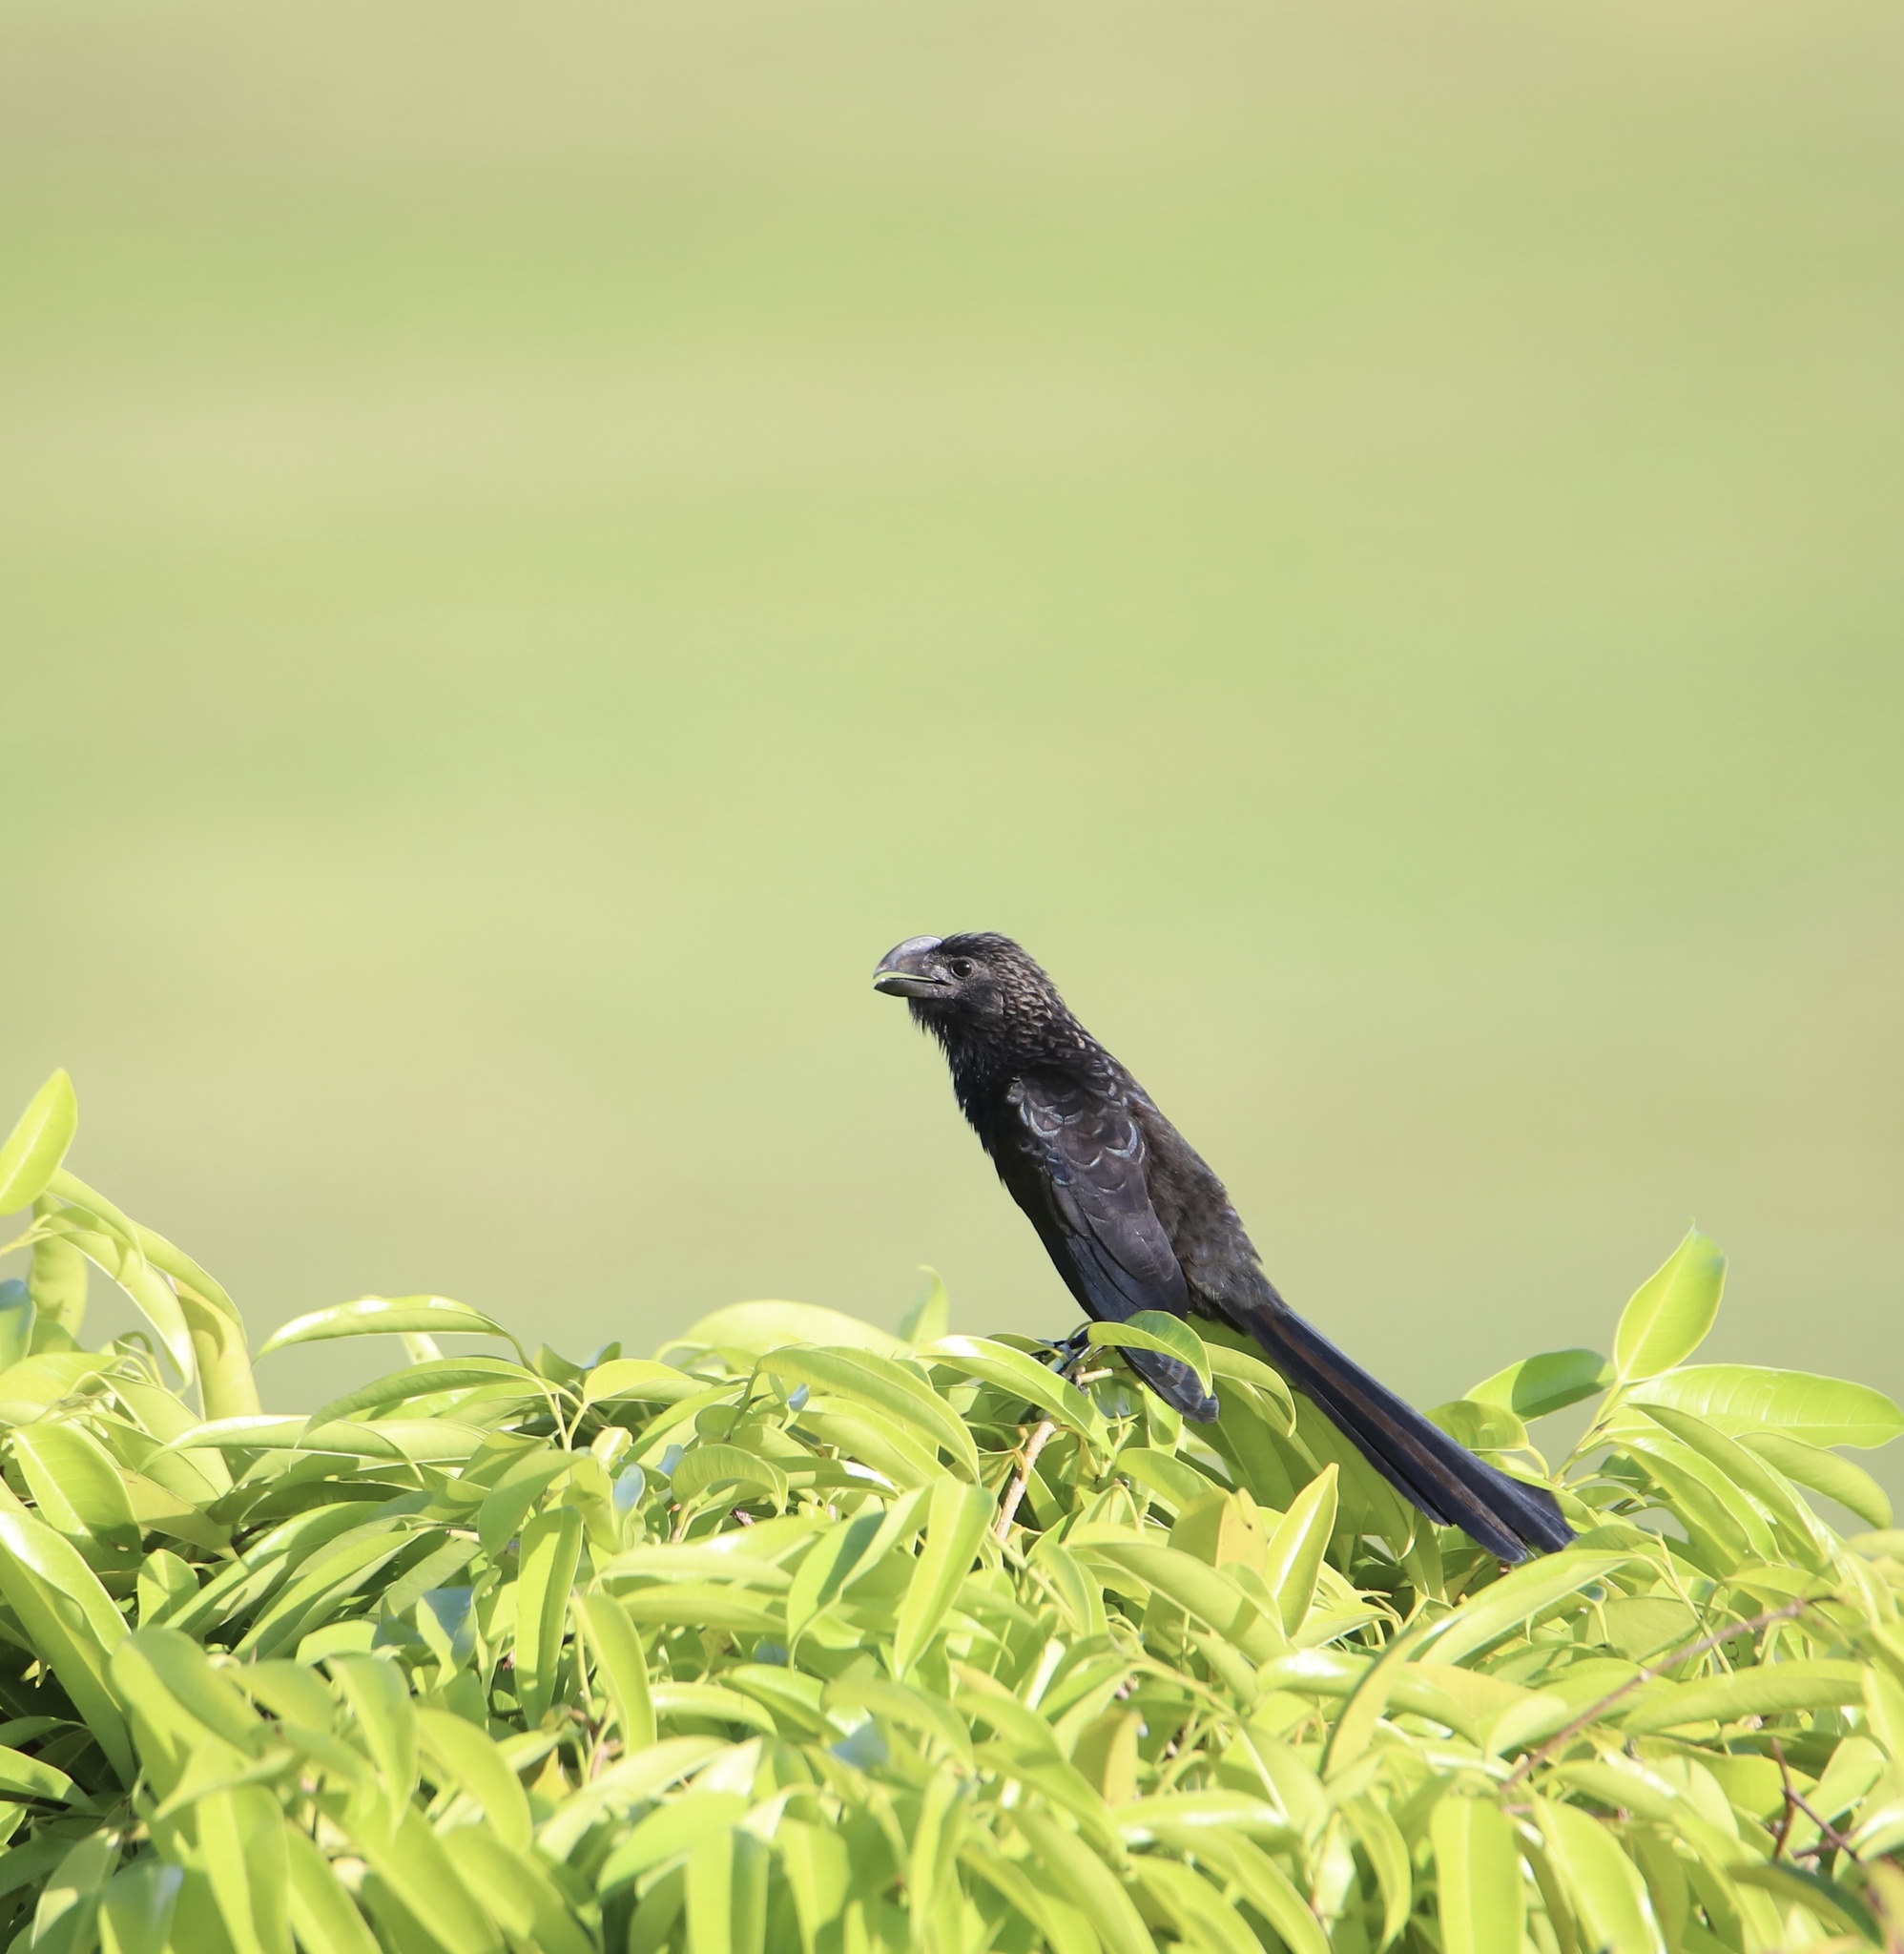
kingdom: Animalia
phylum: Chordata
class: Aves
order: Cuculiformes
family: Cuculidae
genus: Crotophaga
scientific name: Crotophaga ani
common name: Smooth-billed ani
